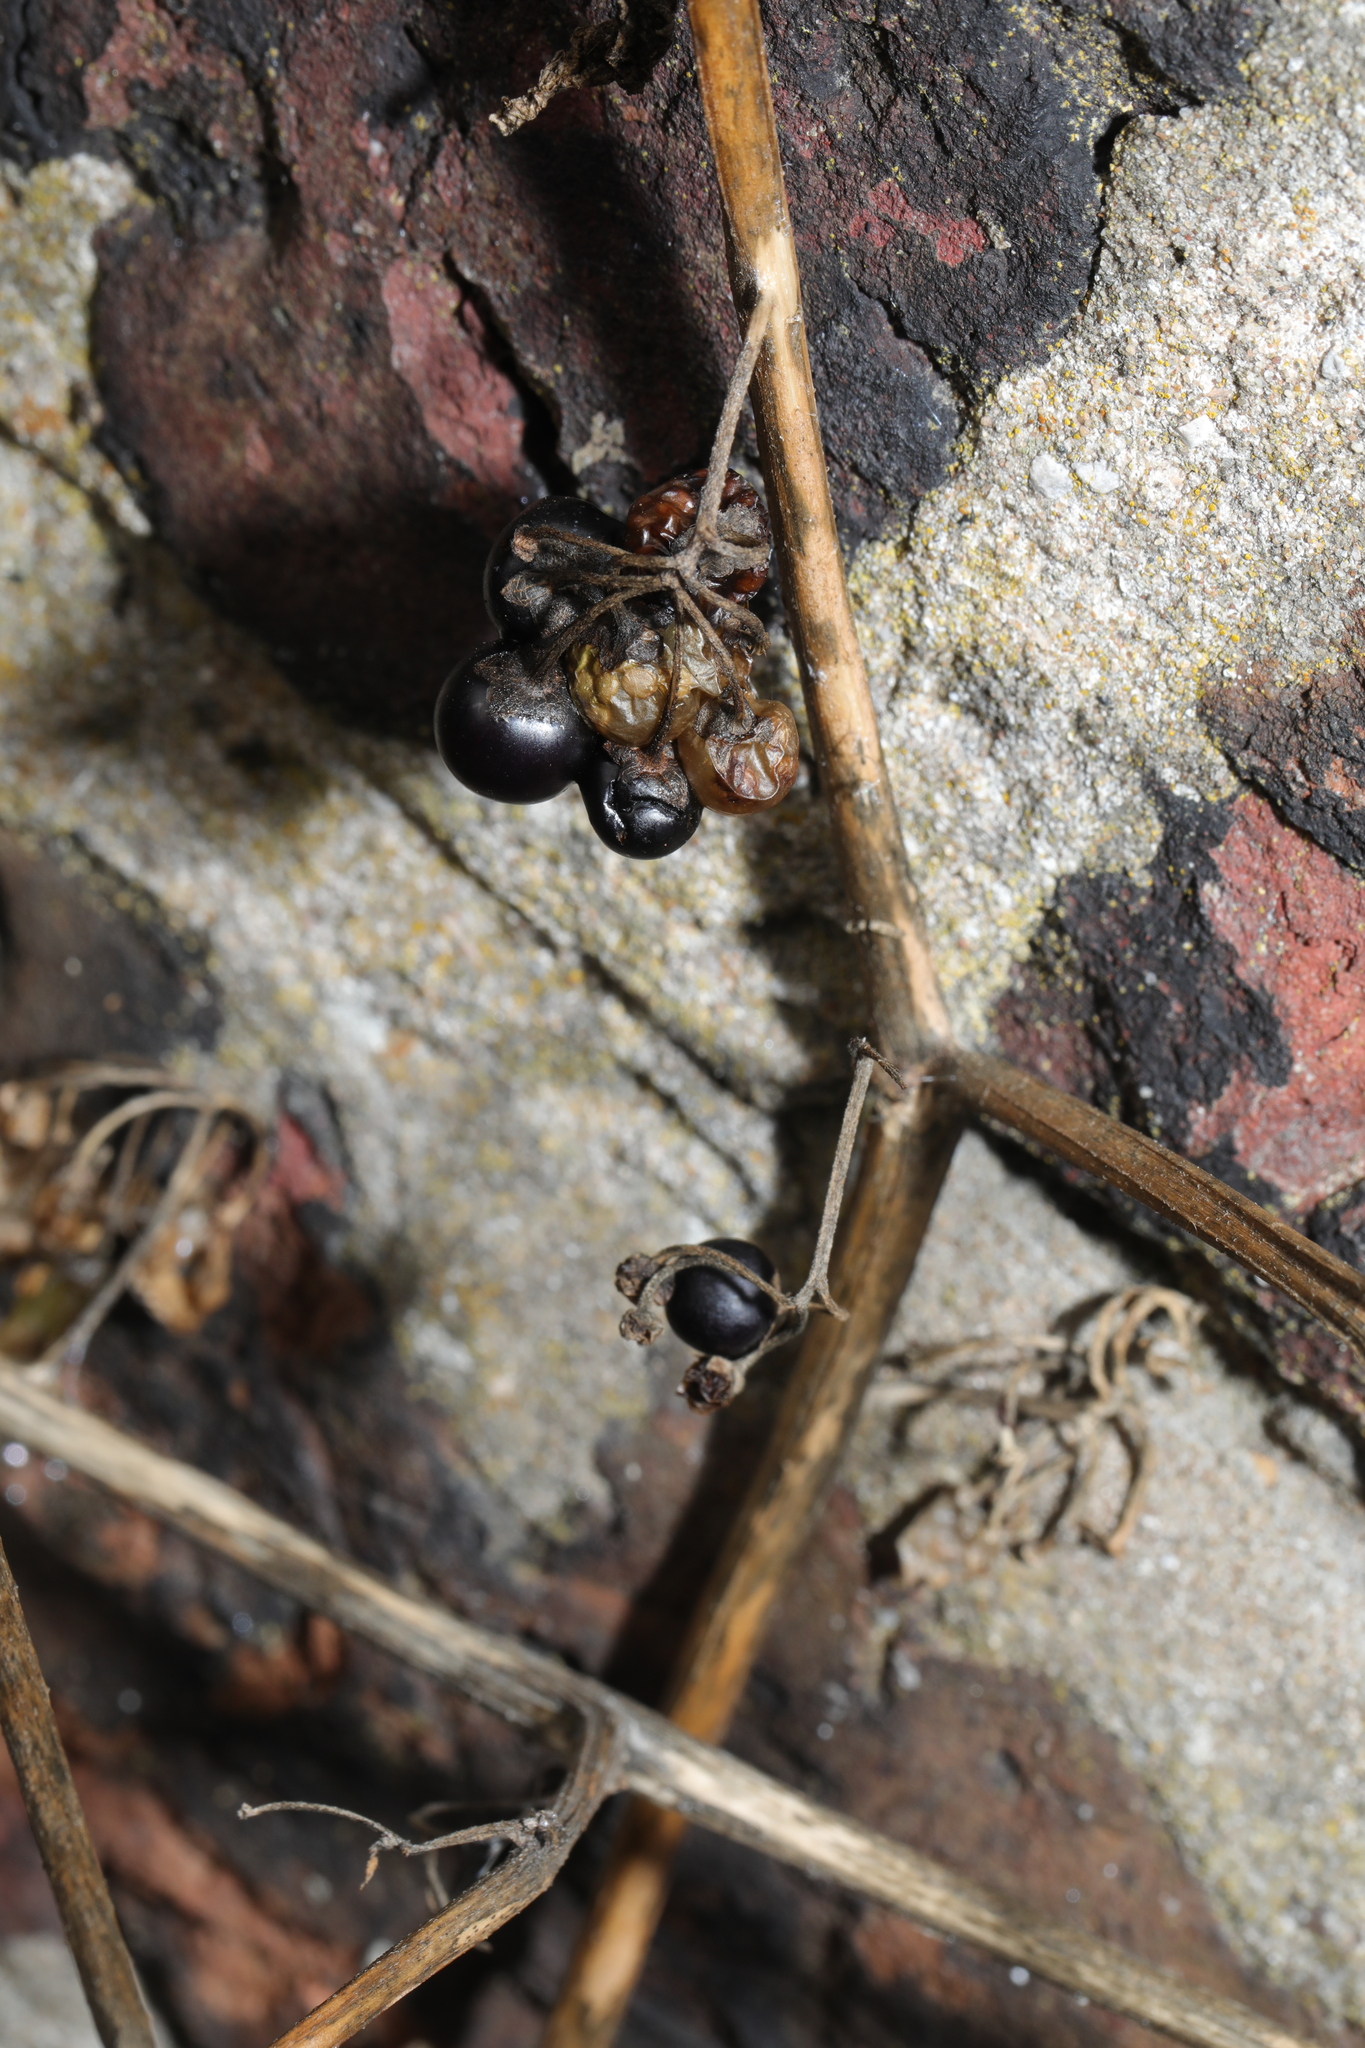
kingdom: Plantae
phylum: Tracheophyta
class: Magnoliopsida
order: Solanales
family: Solanaceae
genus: Solanum
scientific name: Solanum nigrum
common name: Black nightshade
